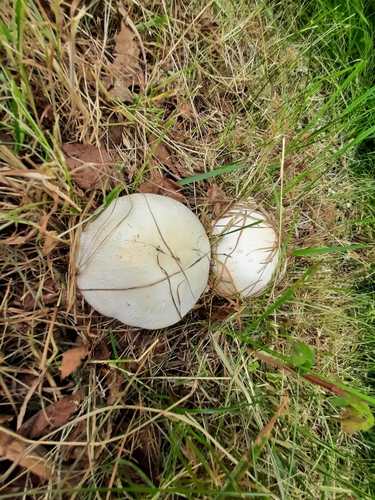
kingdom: Fungi
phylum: Basidiomycota
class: Agaricomycetes
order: Agaricales
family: Agaricaceae
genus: Agaricus
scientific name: Agaricus
